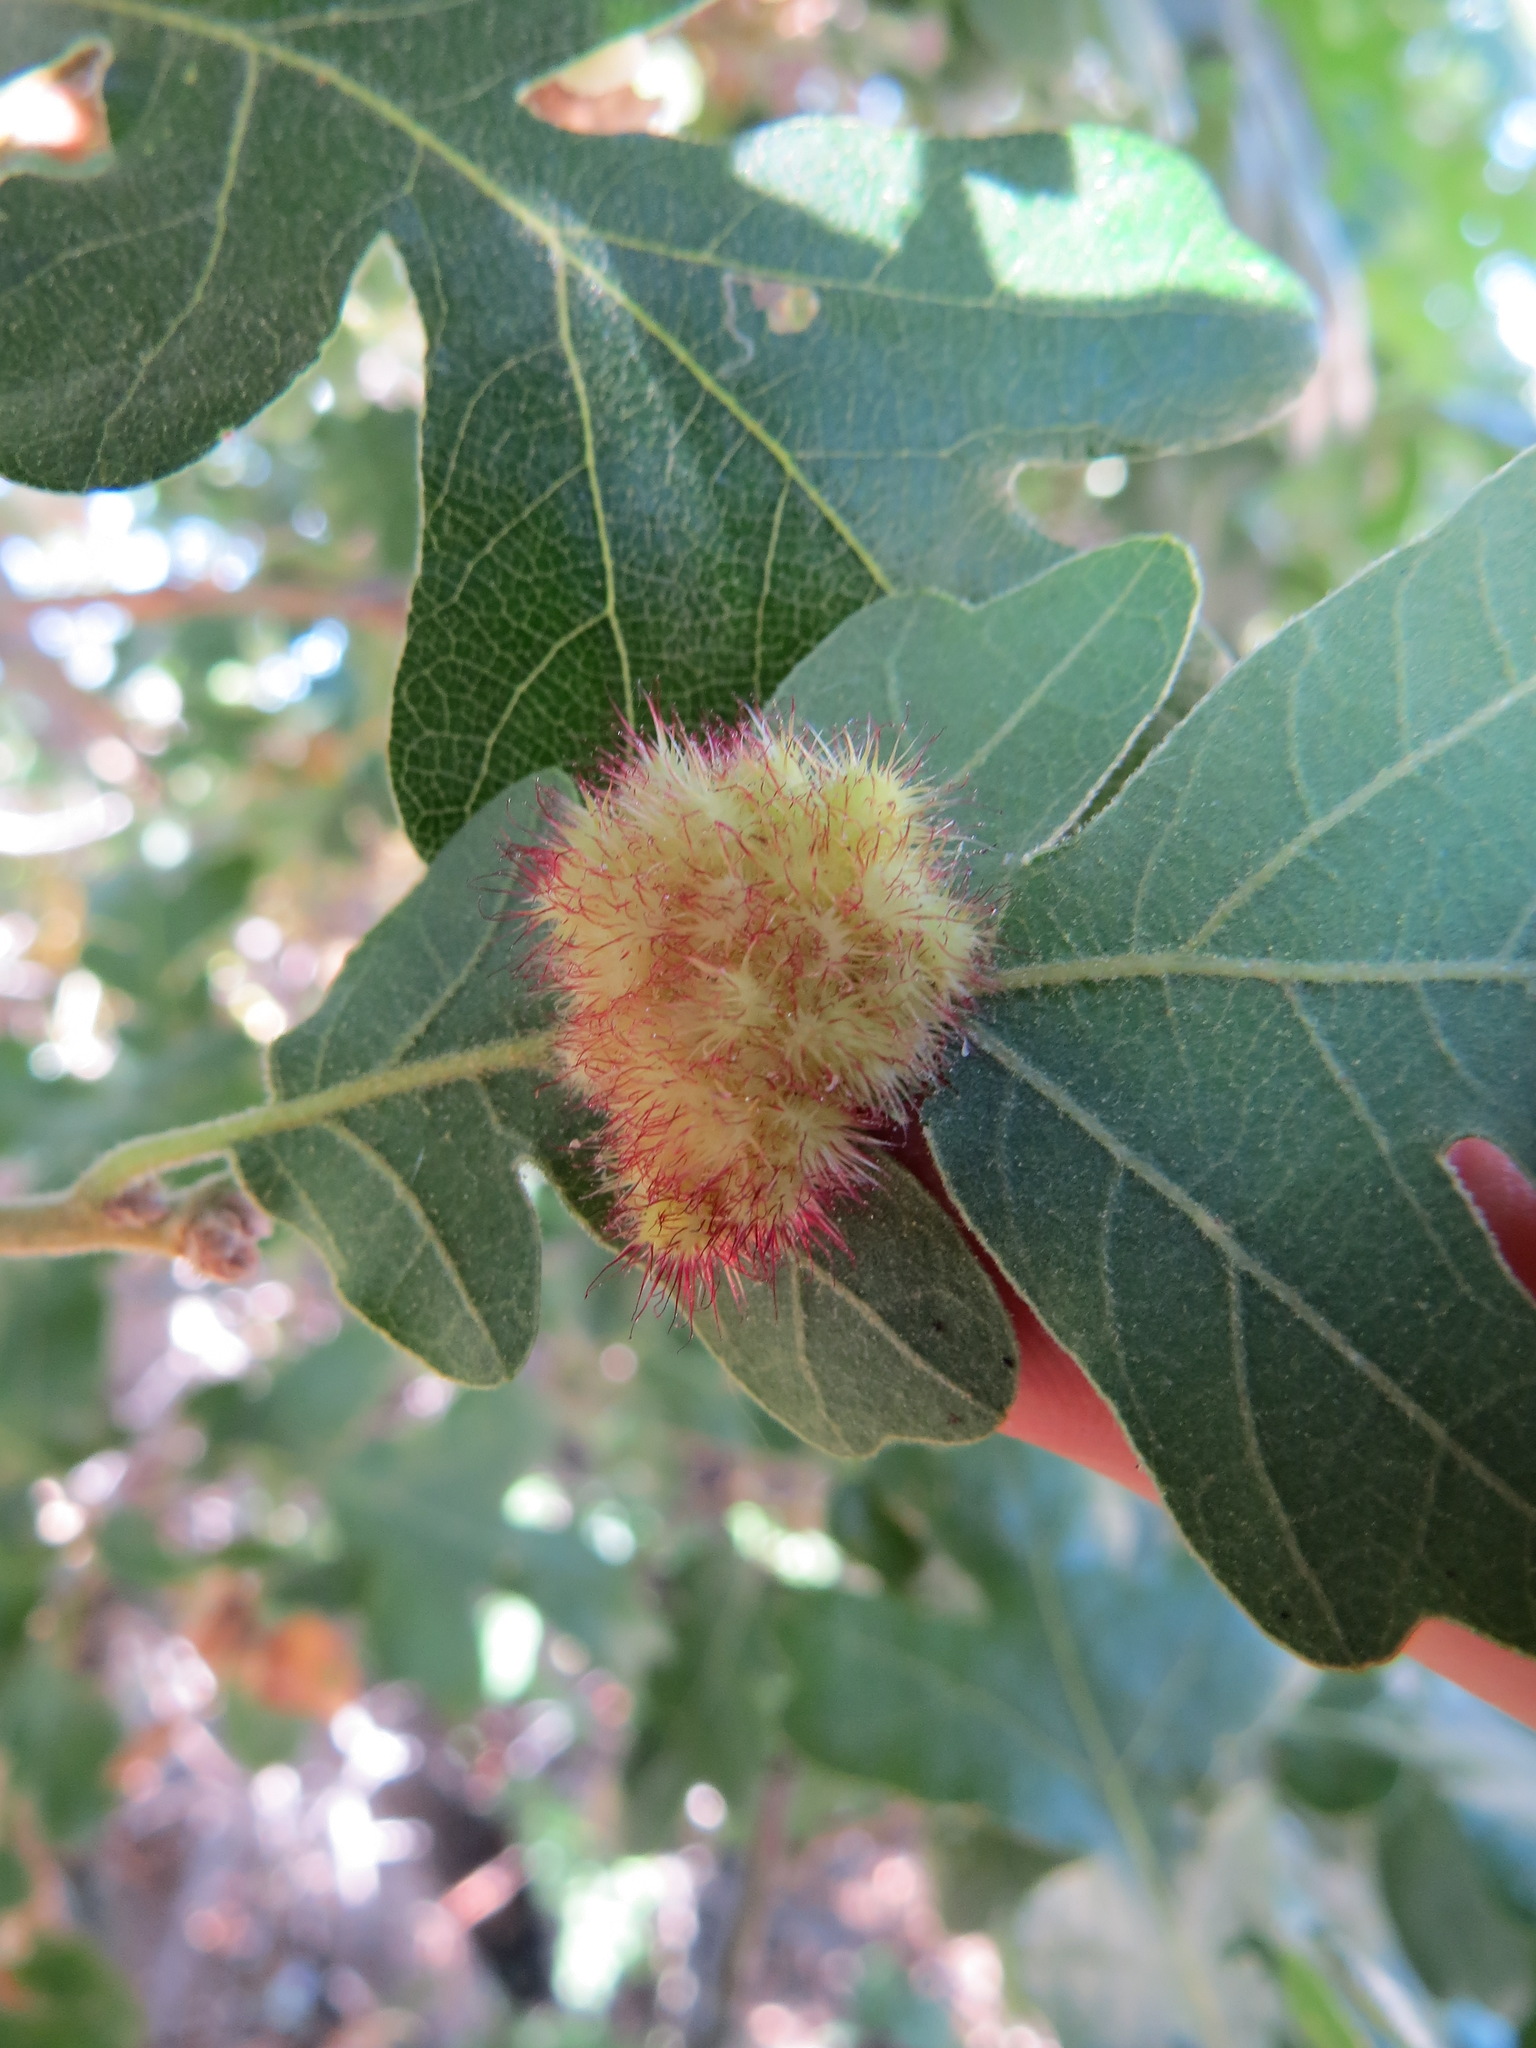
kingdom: Animalia
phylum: Arthropoda
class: Insecta
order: Hymenoptera
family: Cynipidae
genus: Andricus
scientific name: Andricus
